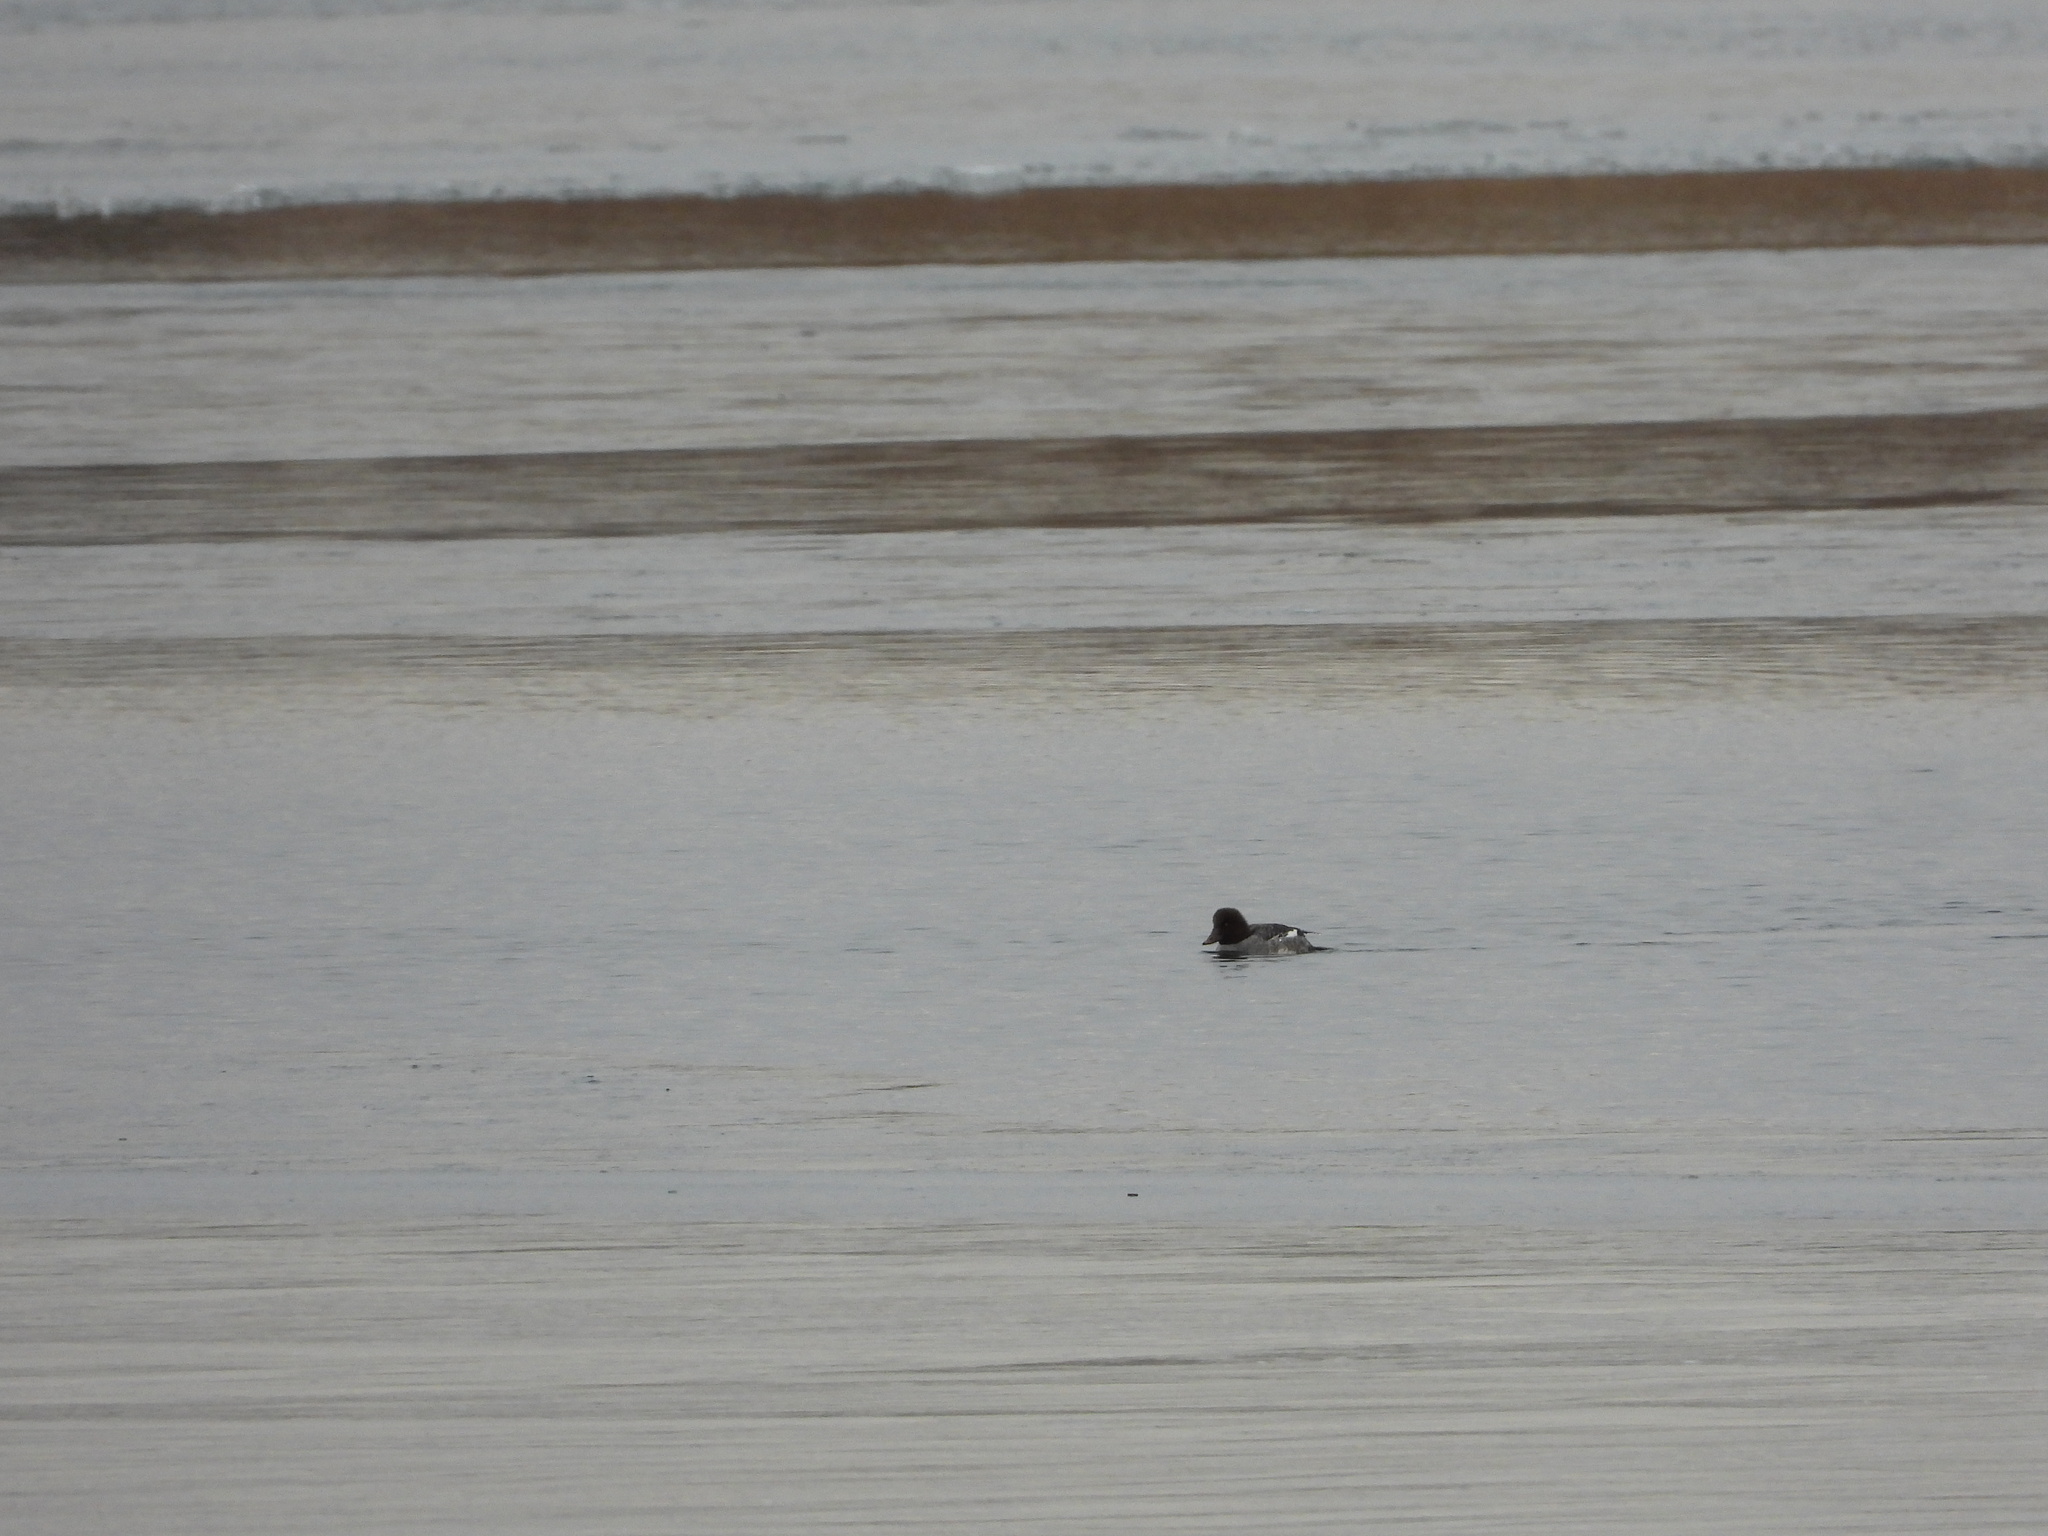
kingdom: Animalia
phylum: Chordata
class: Aves
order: Anseriformes
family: Anatidae
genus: Bucephala
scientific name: Bucephala clangula
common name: Common goldeneye
